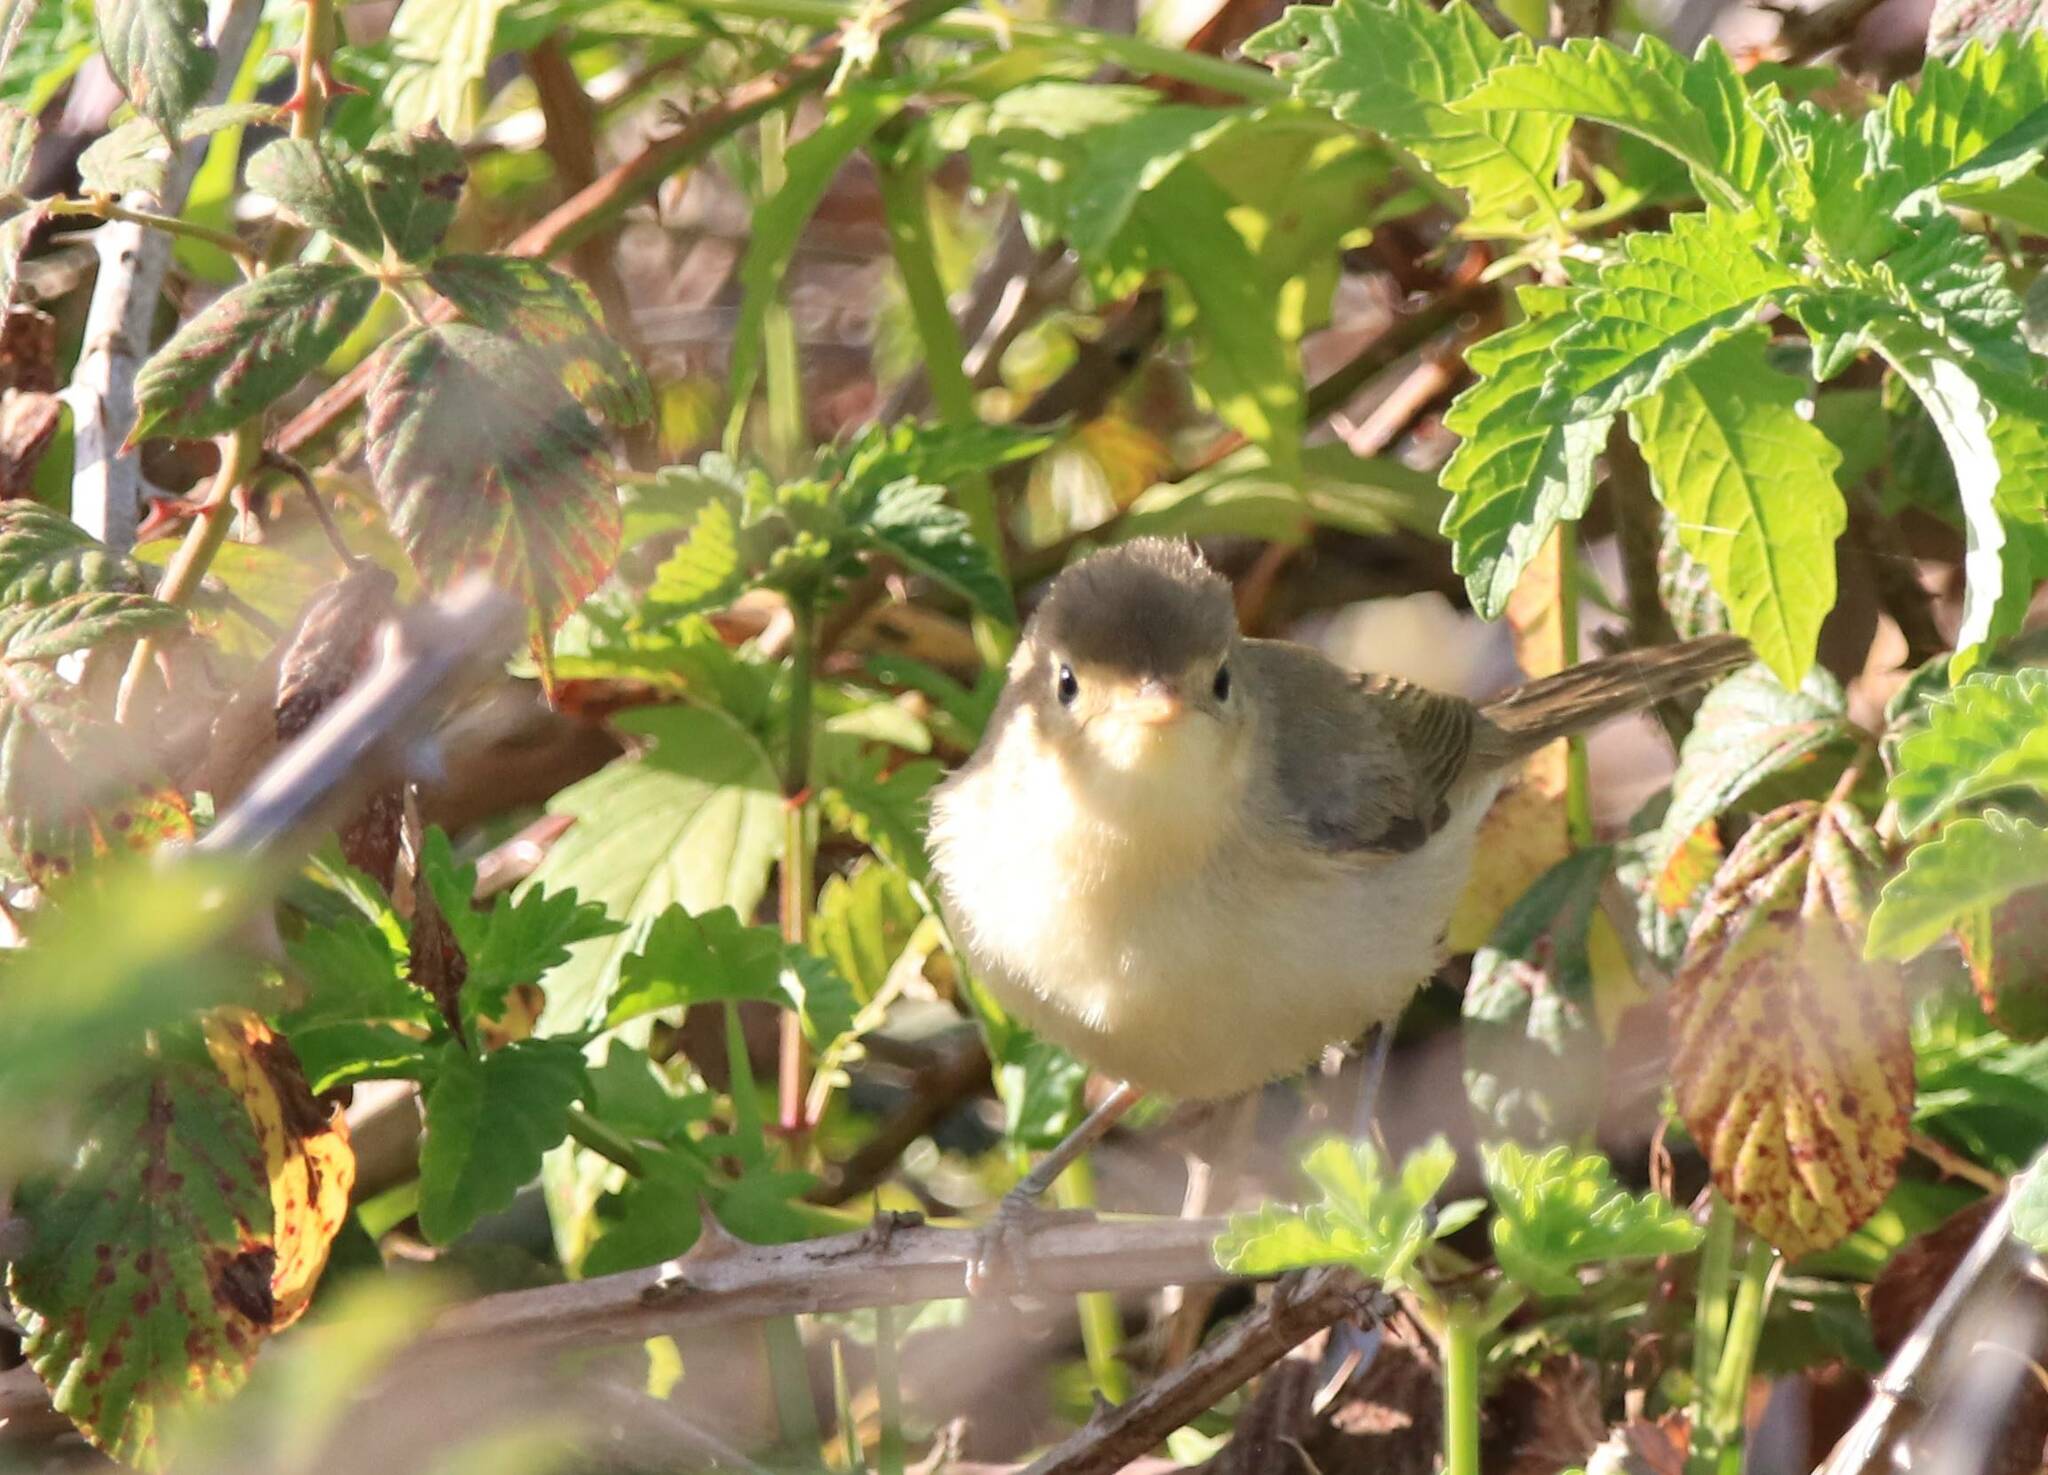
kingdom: Animalia
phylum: Chordata
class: Aves
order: Passeriformes
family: Acrocephalidae
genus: Hippolais
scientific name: Hippolais polyglotta
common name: Melodious warbler
